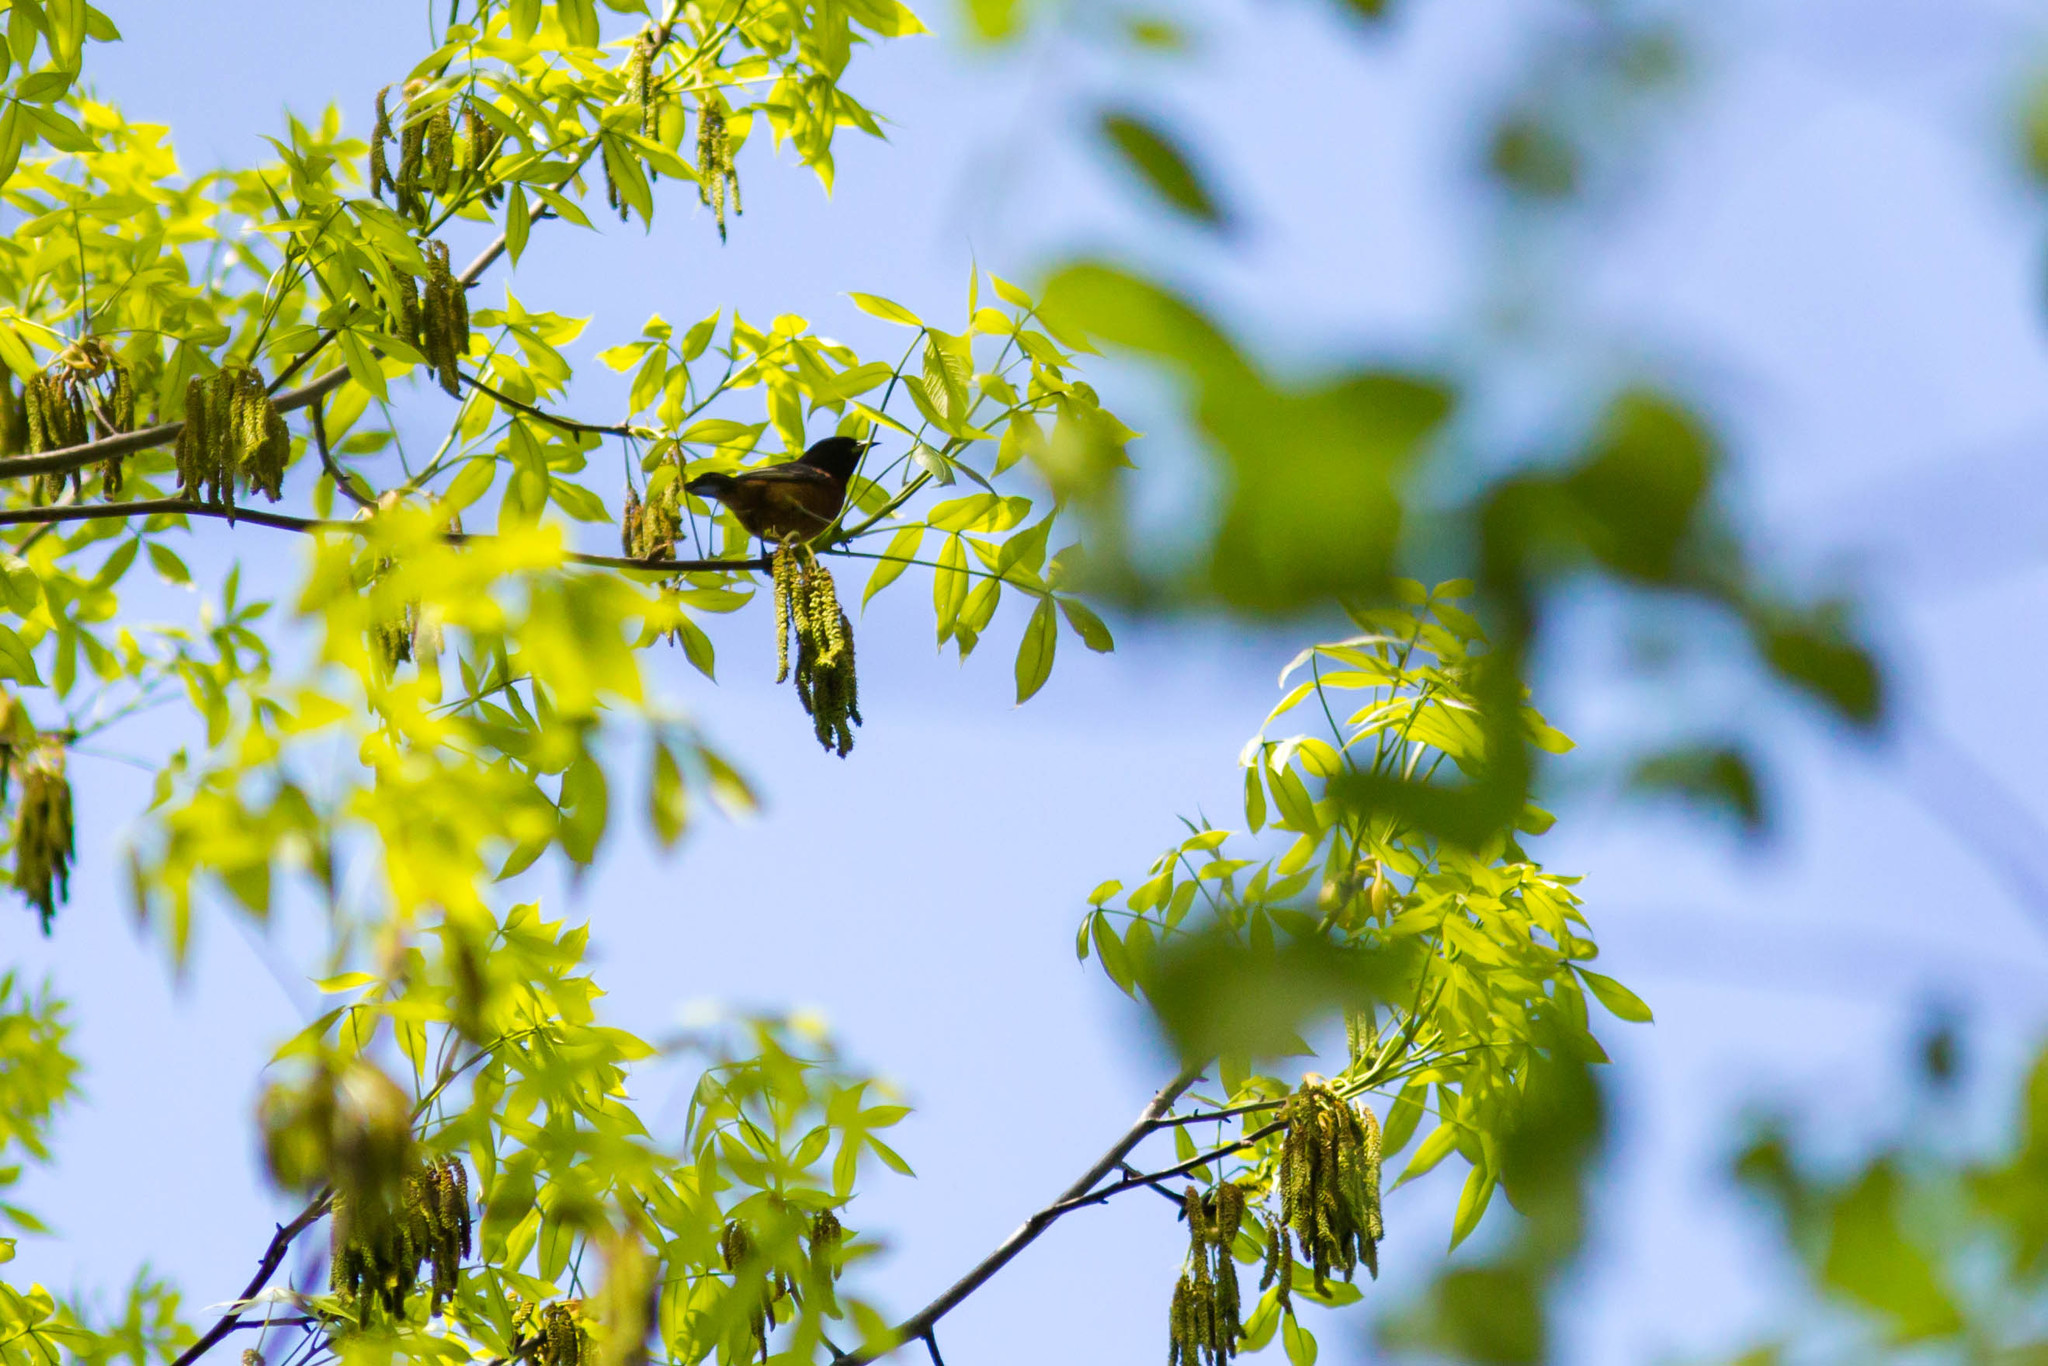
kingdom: Animalia
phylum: Chordata
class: Aves
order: Passeriformes
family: Icteridae
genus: Icterus
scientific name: Icterus spurius
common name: Orchard oriole
